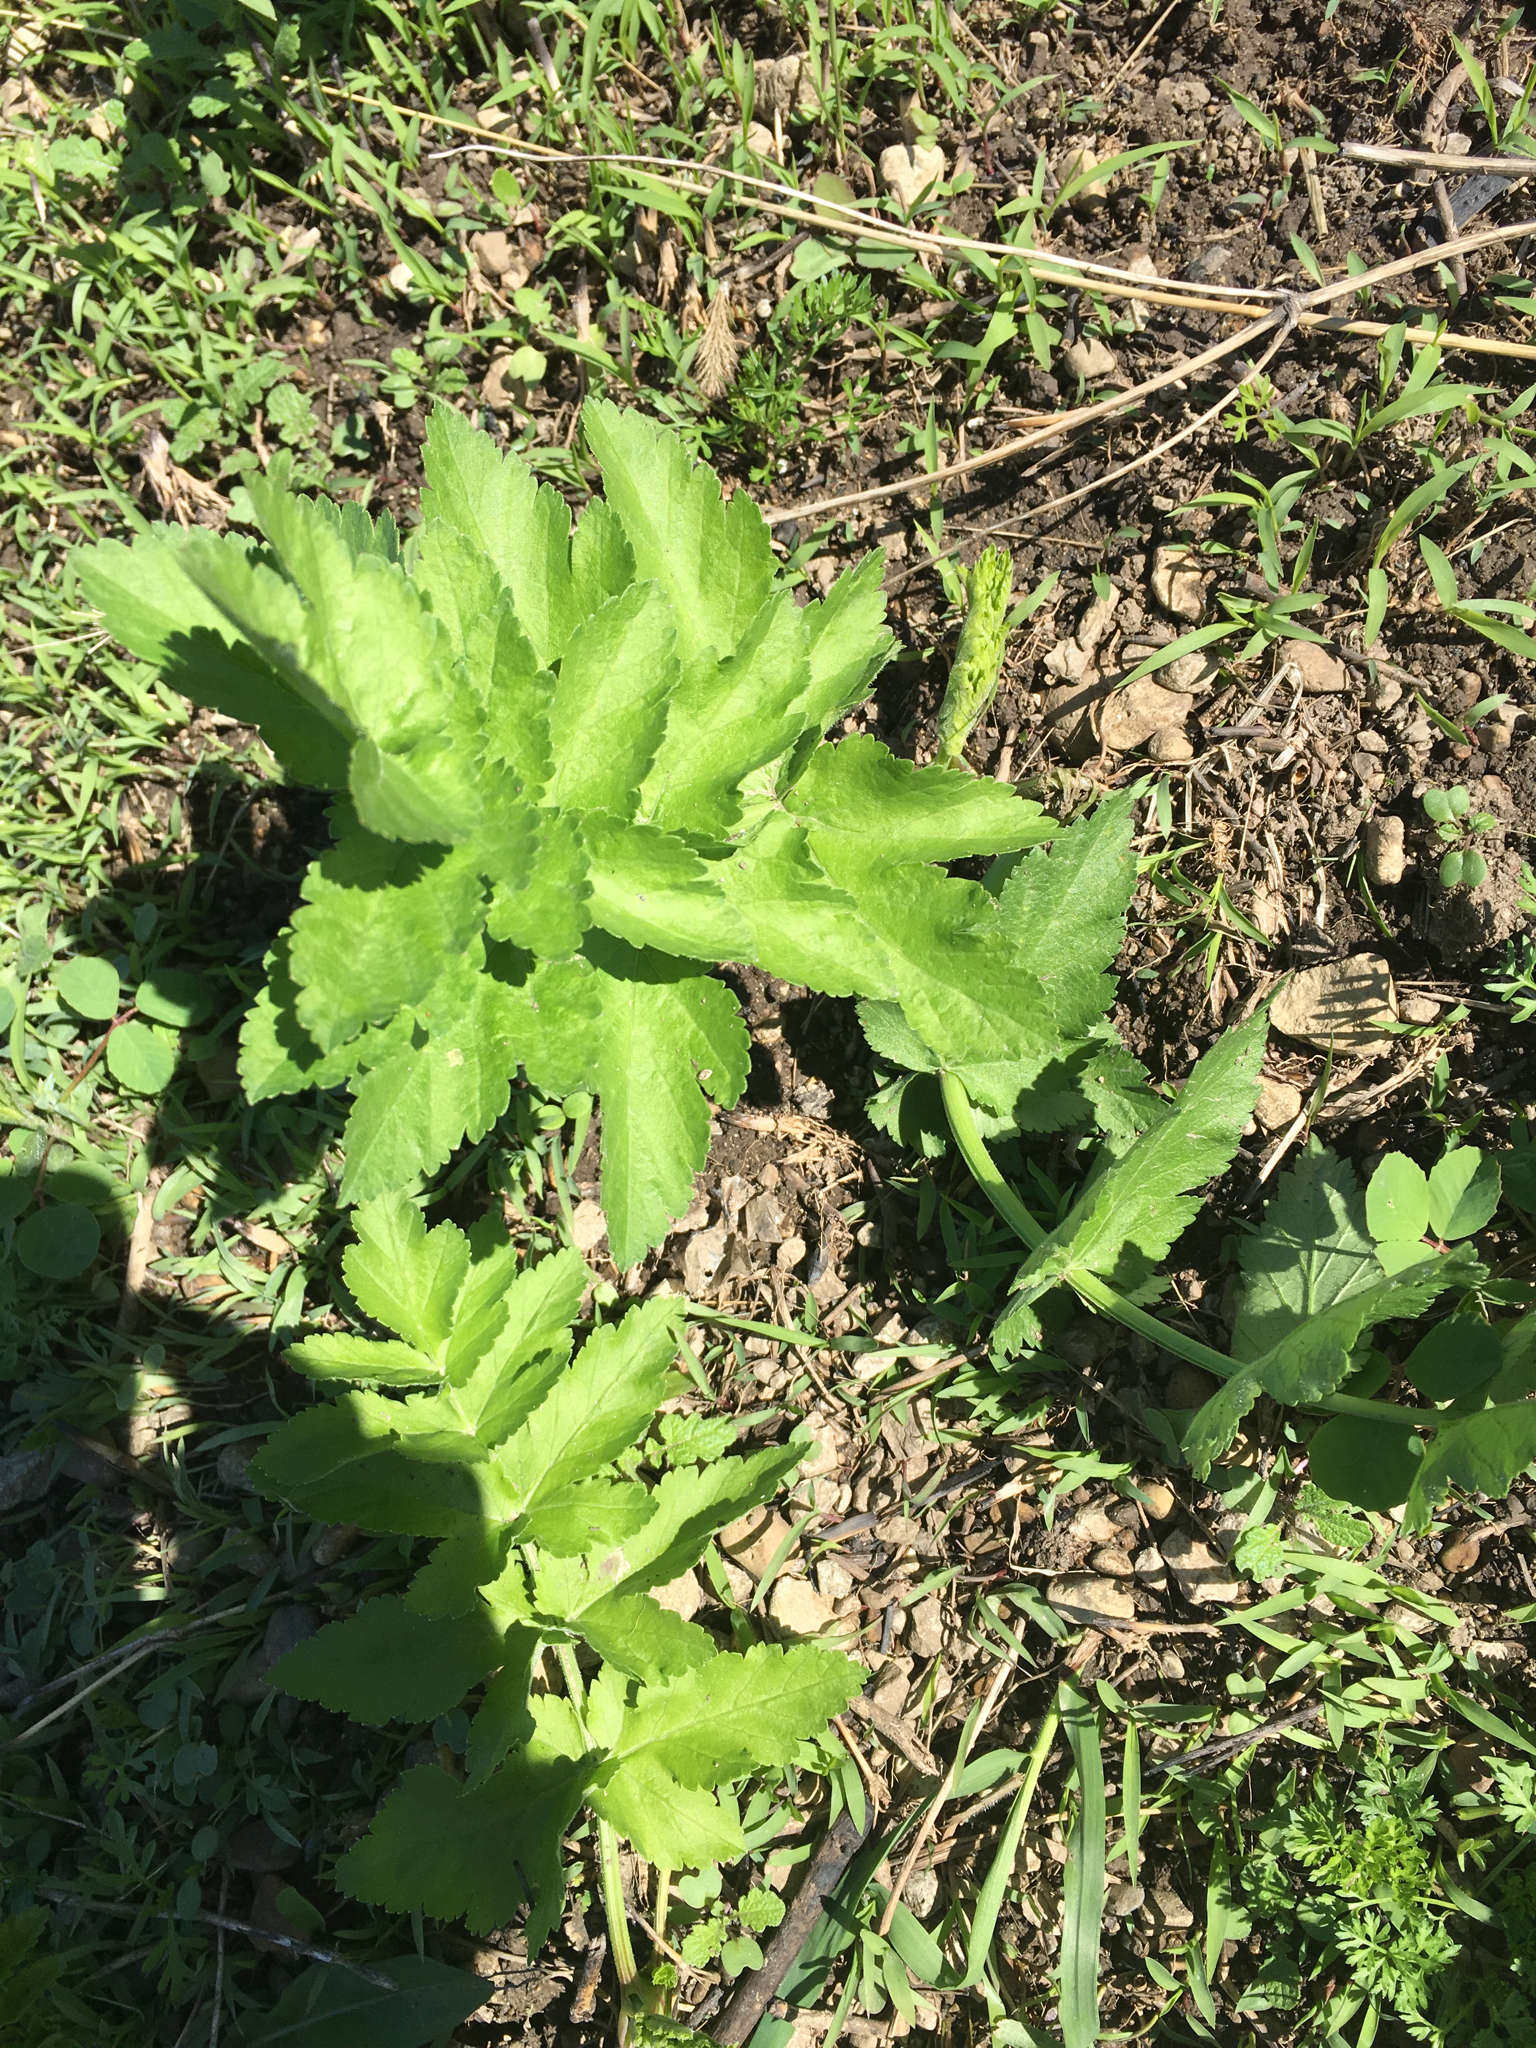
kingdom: Plantae
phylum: Tracheophyta
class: Magnoliopsida
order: Apiales
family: Apiaceae
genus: Pastinaca
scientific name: Pastinaca sativa
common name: Wild parsnip
